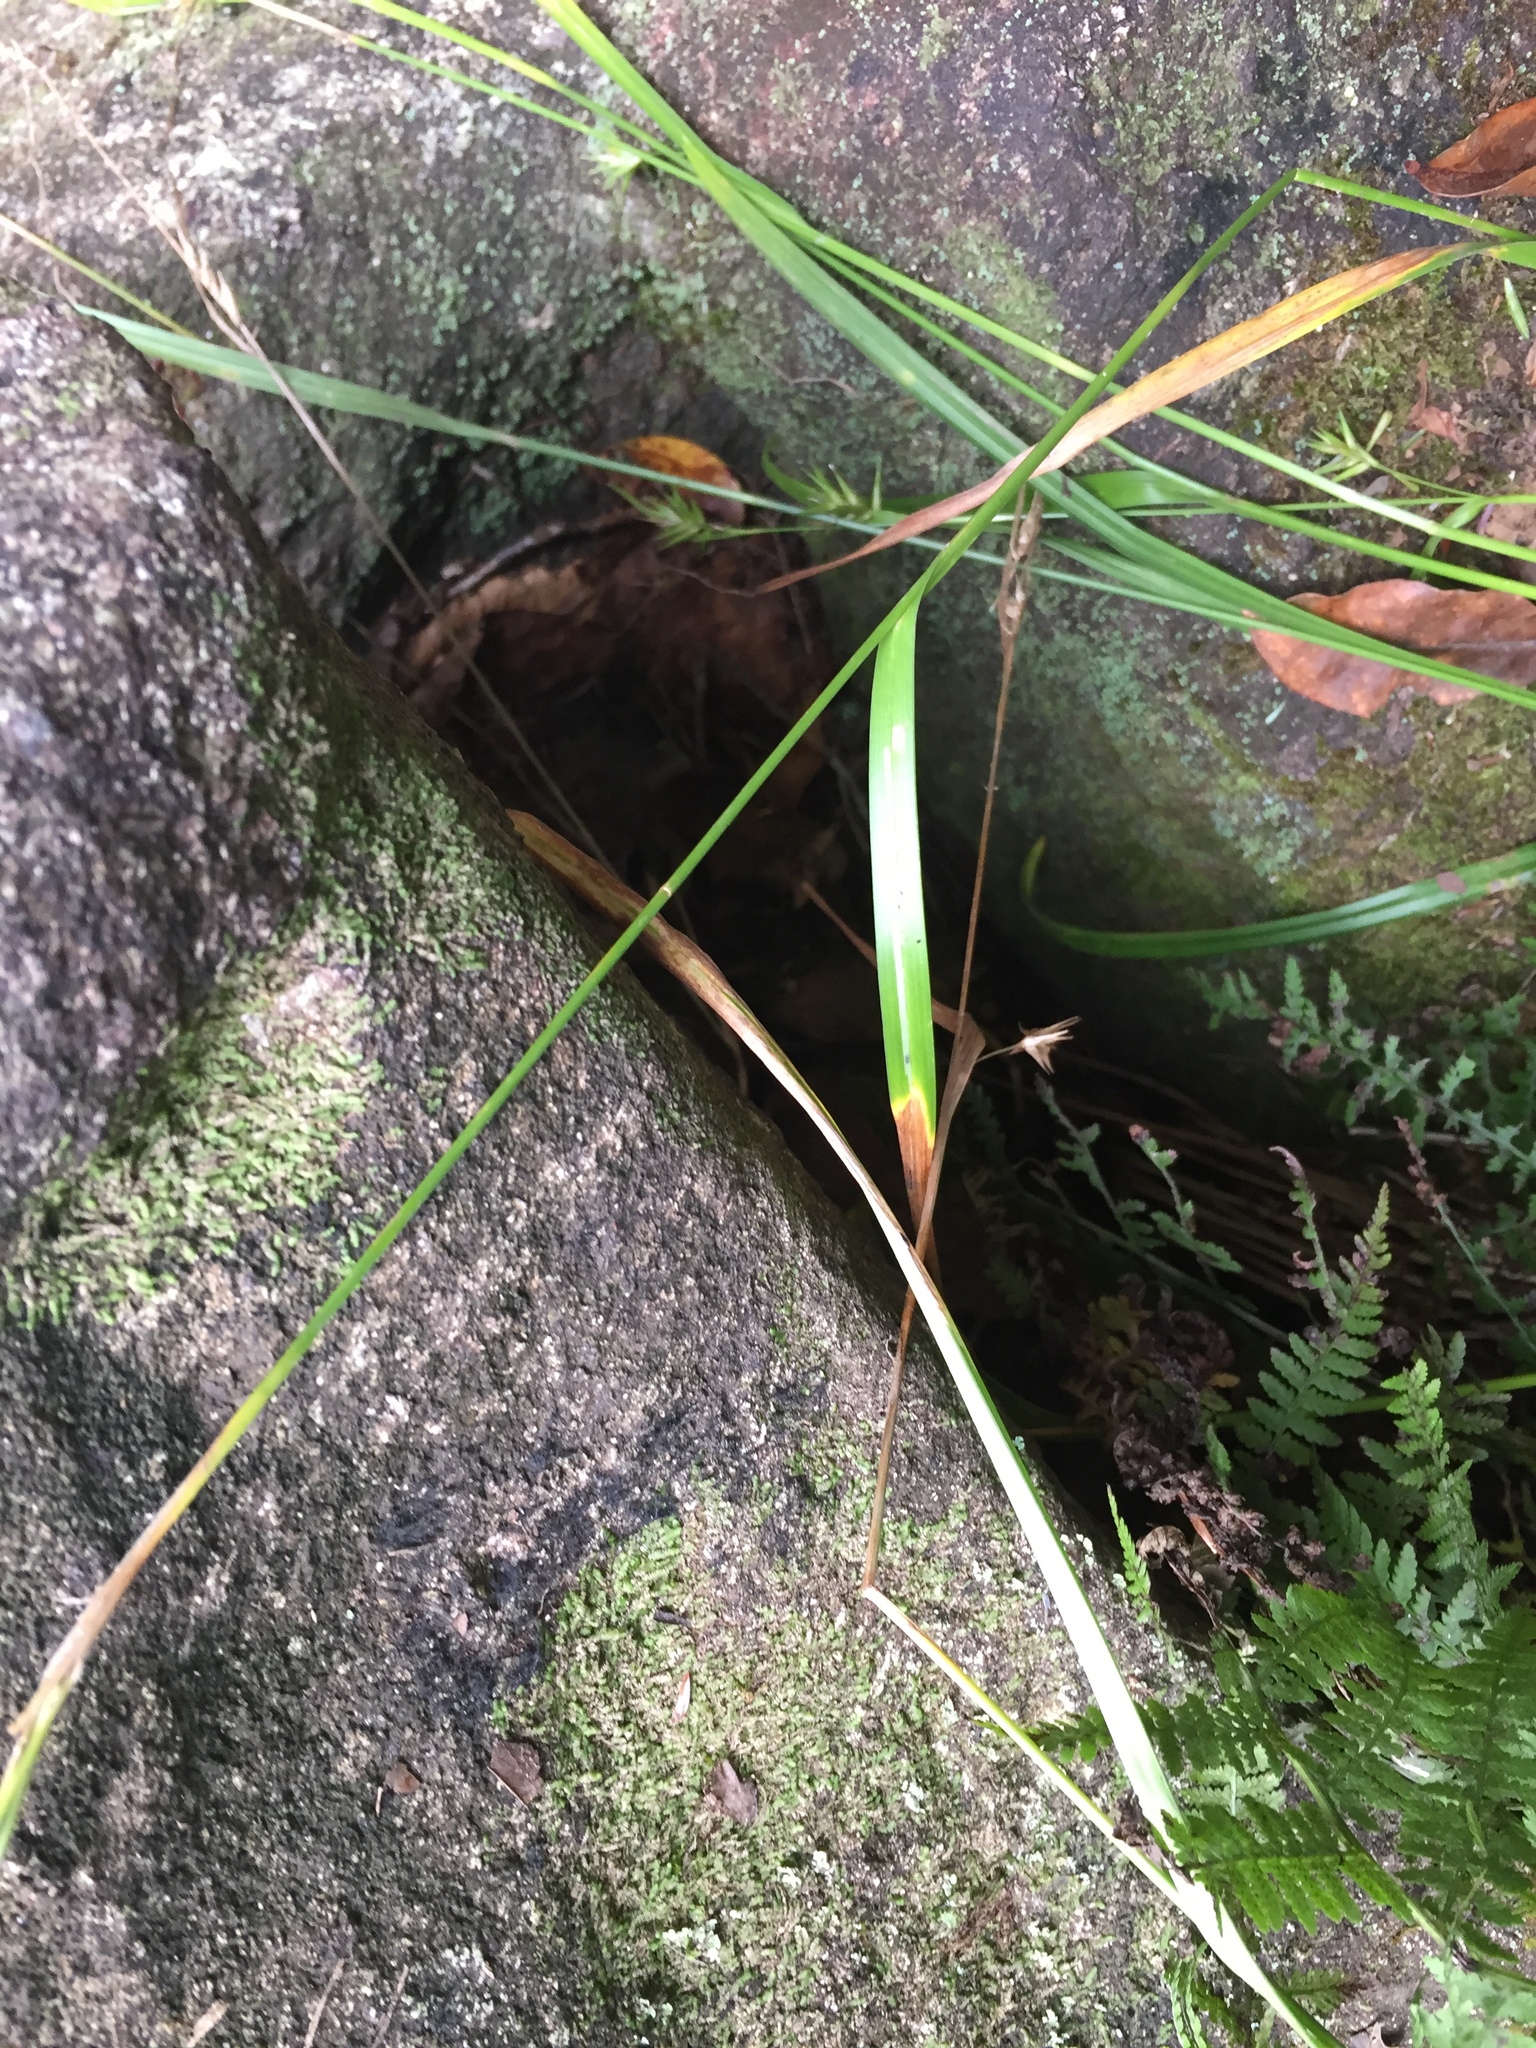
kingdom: Plantae
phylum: Tracheophyta
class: Liliopsida
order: Poales
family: Cyperaceae
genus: Carex
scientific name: Carex folliculata
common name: Northern long sedge
